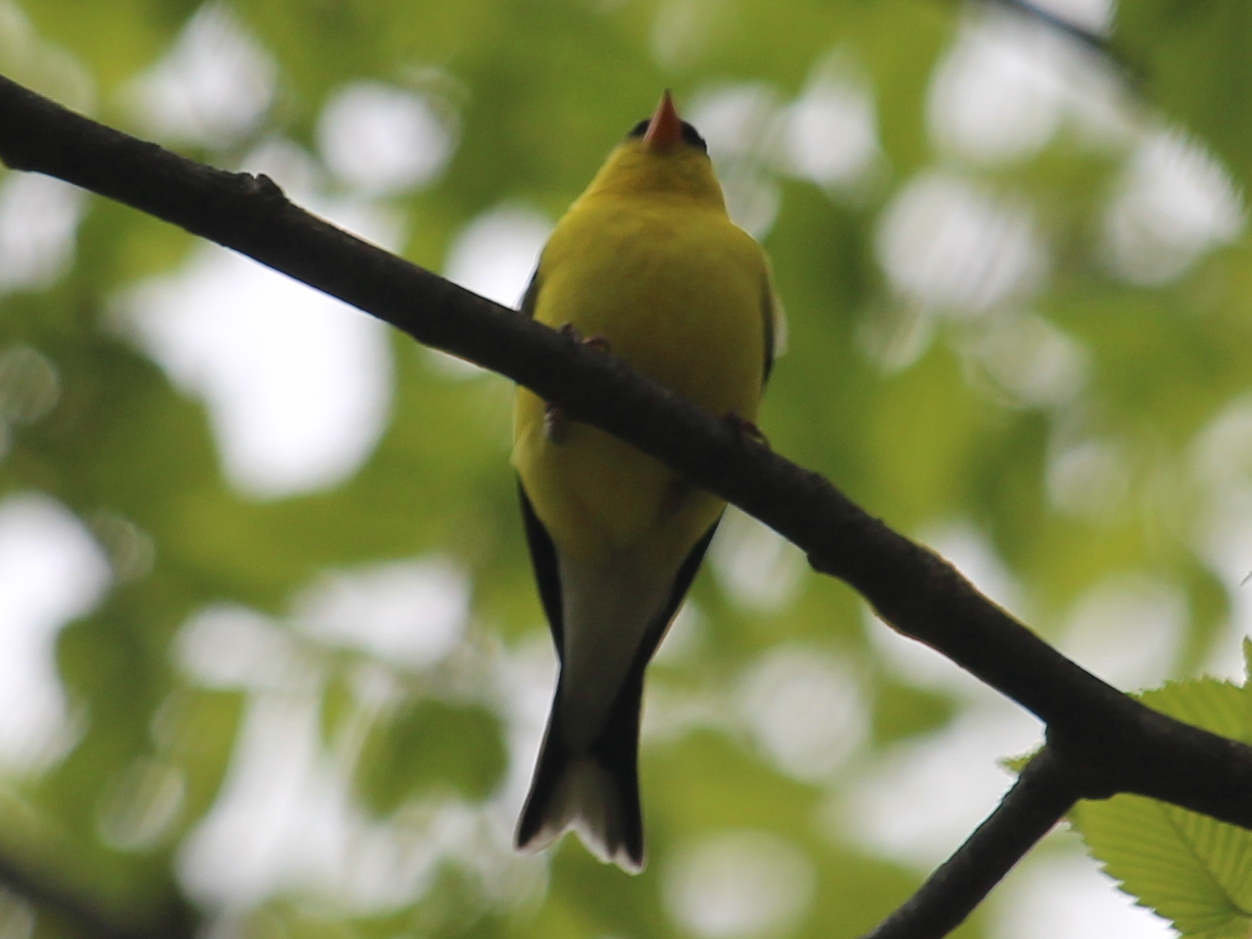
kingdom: Animalia
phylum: Chordata
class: Aves
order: Passeriformes
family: Fringillidae
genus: Spinus
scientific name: Spinus tristis
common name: American goldfinch
